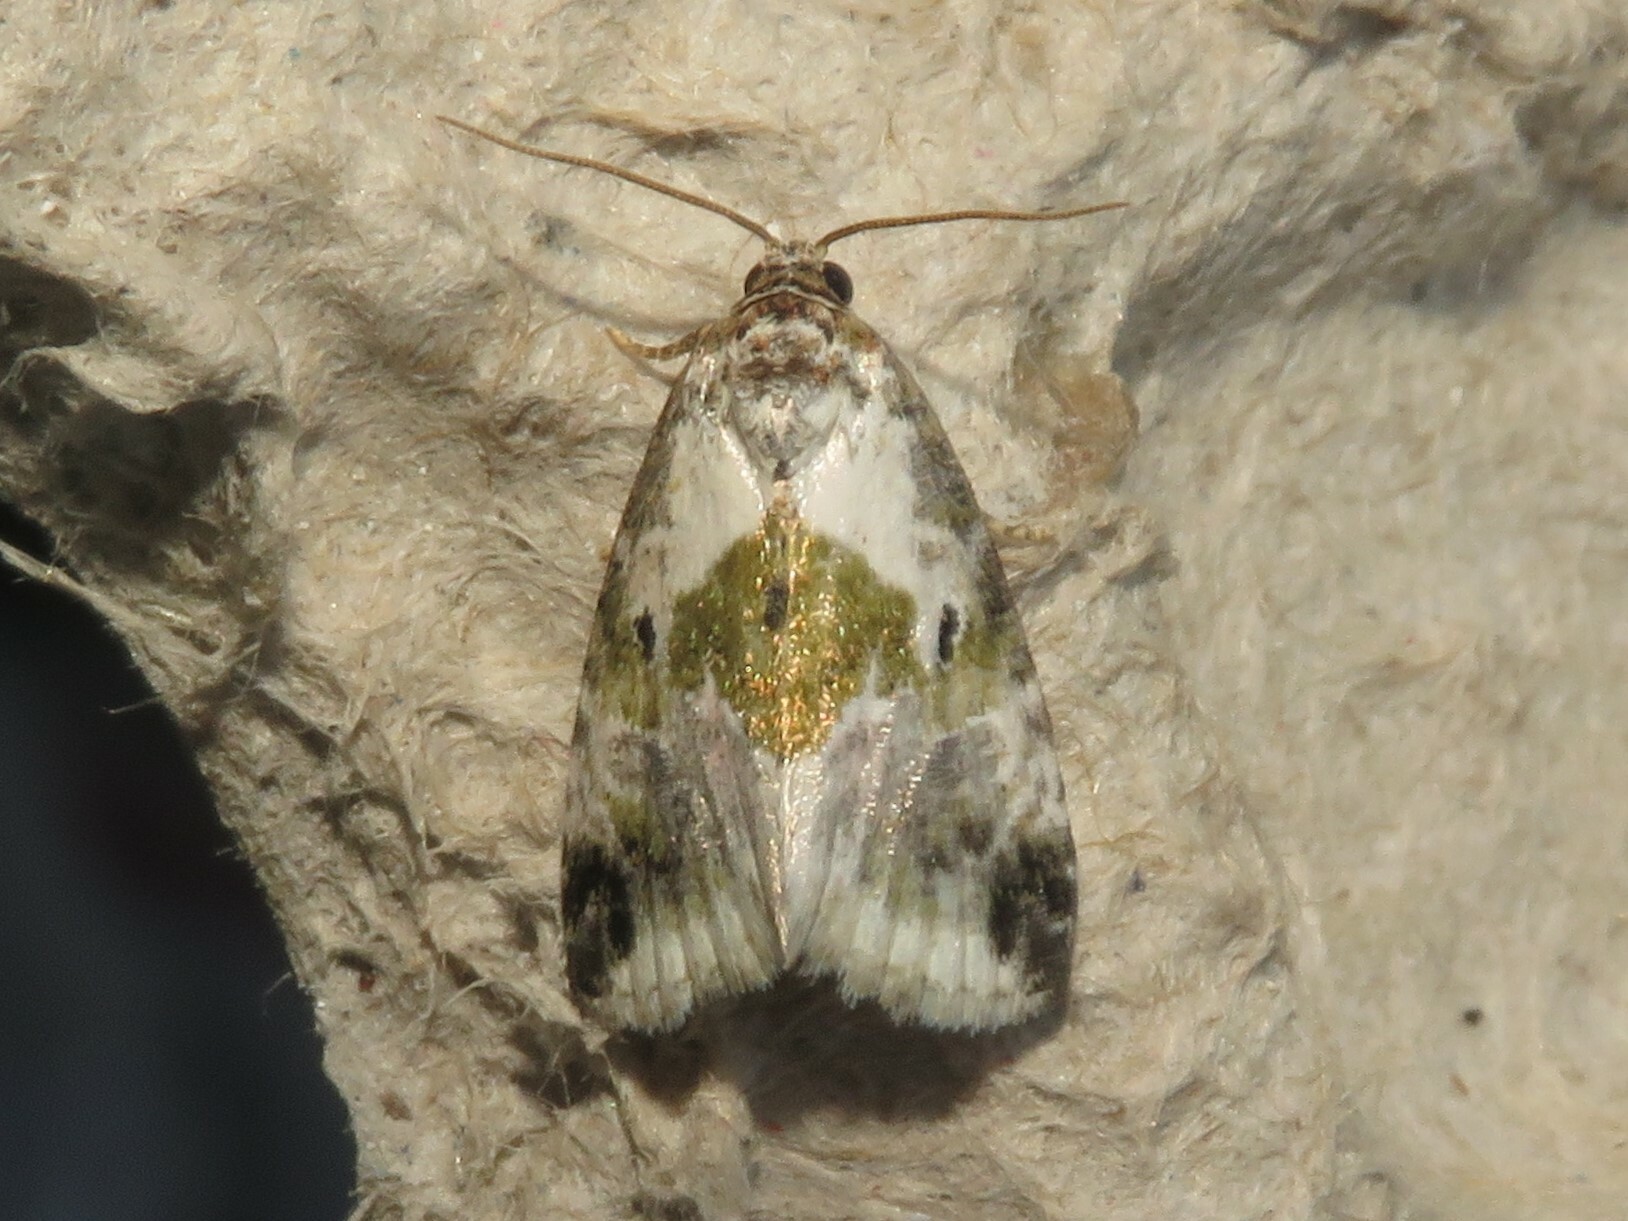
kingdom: Animalia
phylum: Arthropoda
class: Insecta
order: Lepidoptera
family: Noctuidae
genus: Maliattha
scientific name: Maliattha synochitis
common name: Black-dotted glyph
